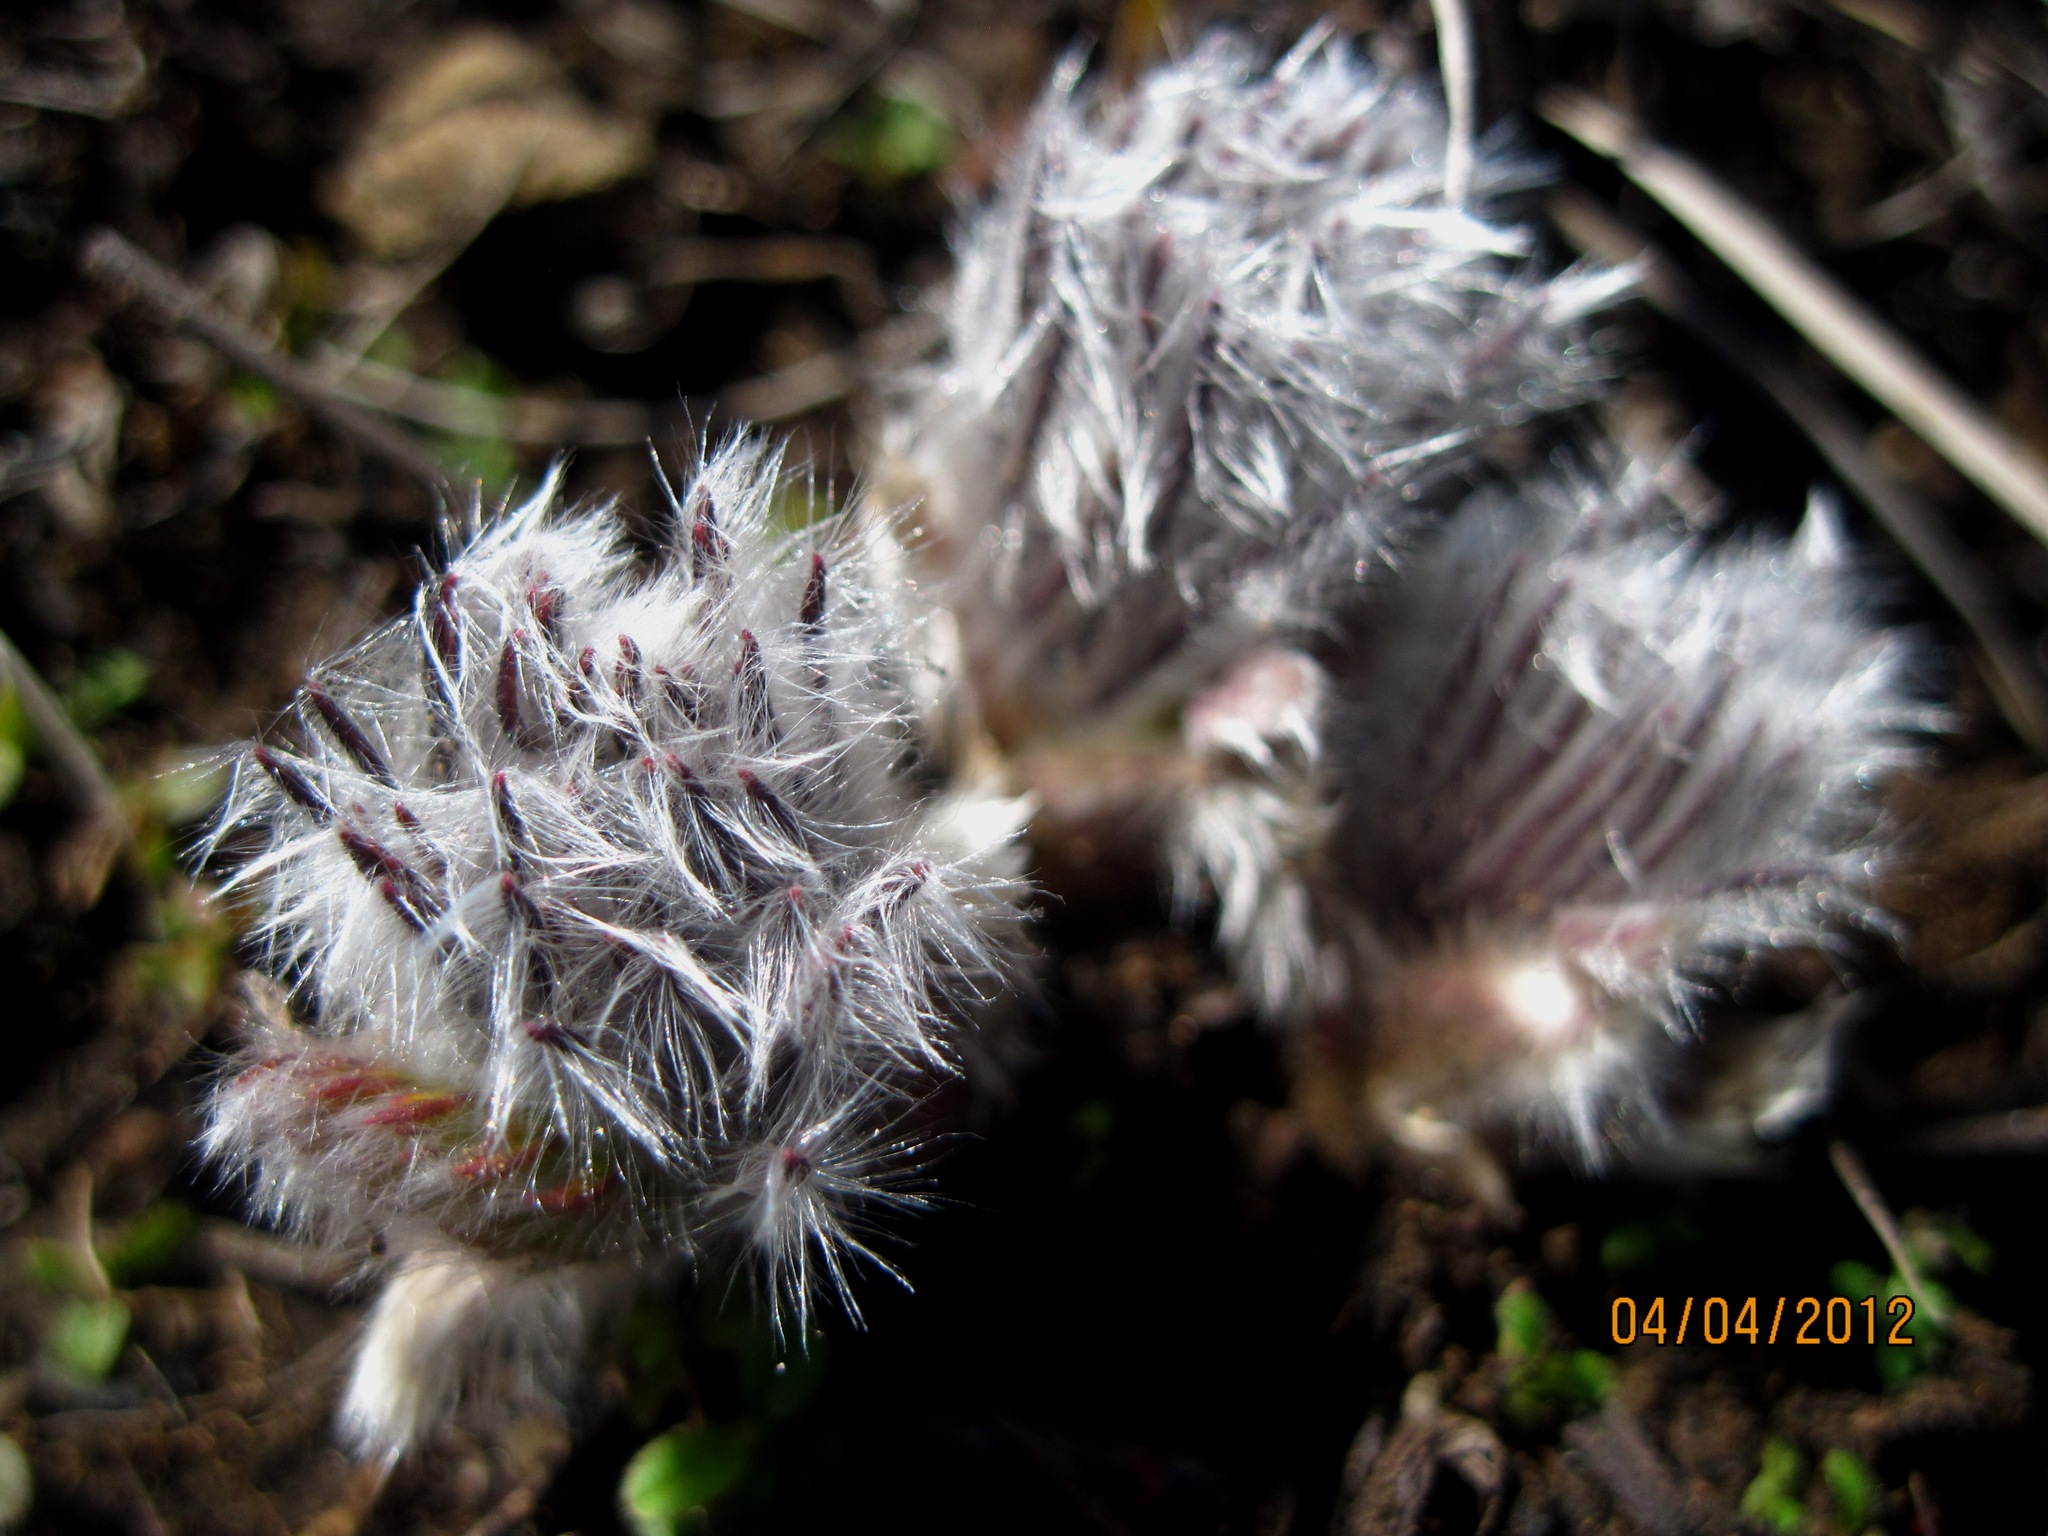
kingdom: Plantae
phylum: Tracheophyta
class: Magnoliopsida
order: Ranunculales
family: Ranunculaceae
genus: Pulsatilla
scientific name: Pulsatilla pratensis
